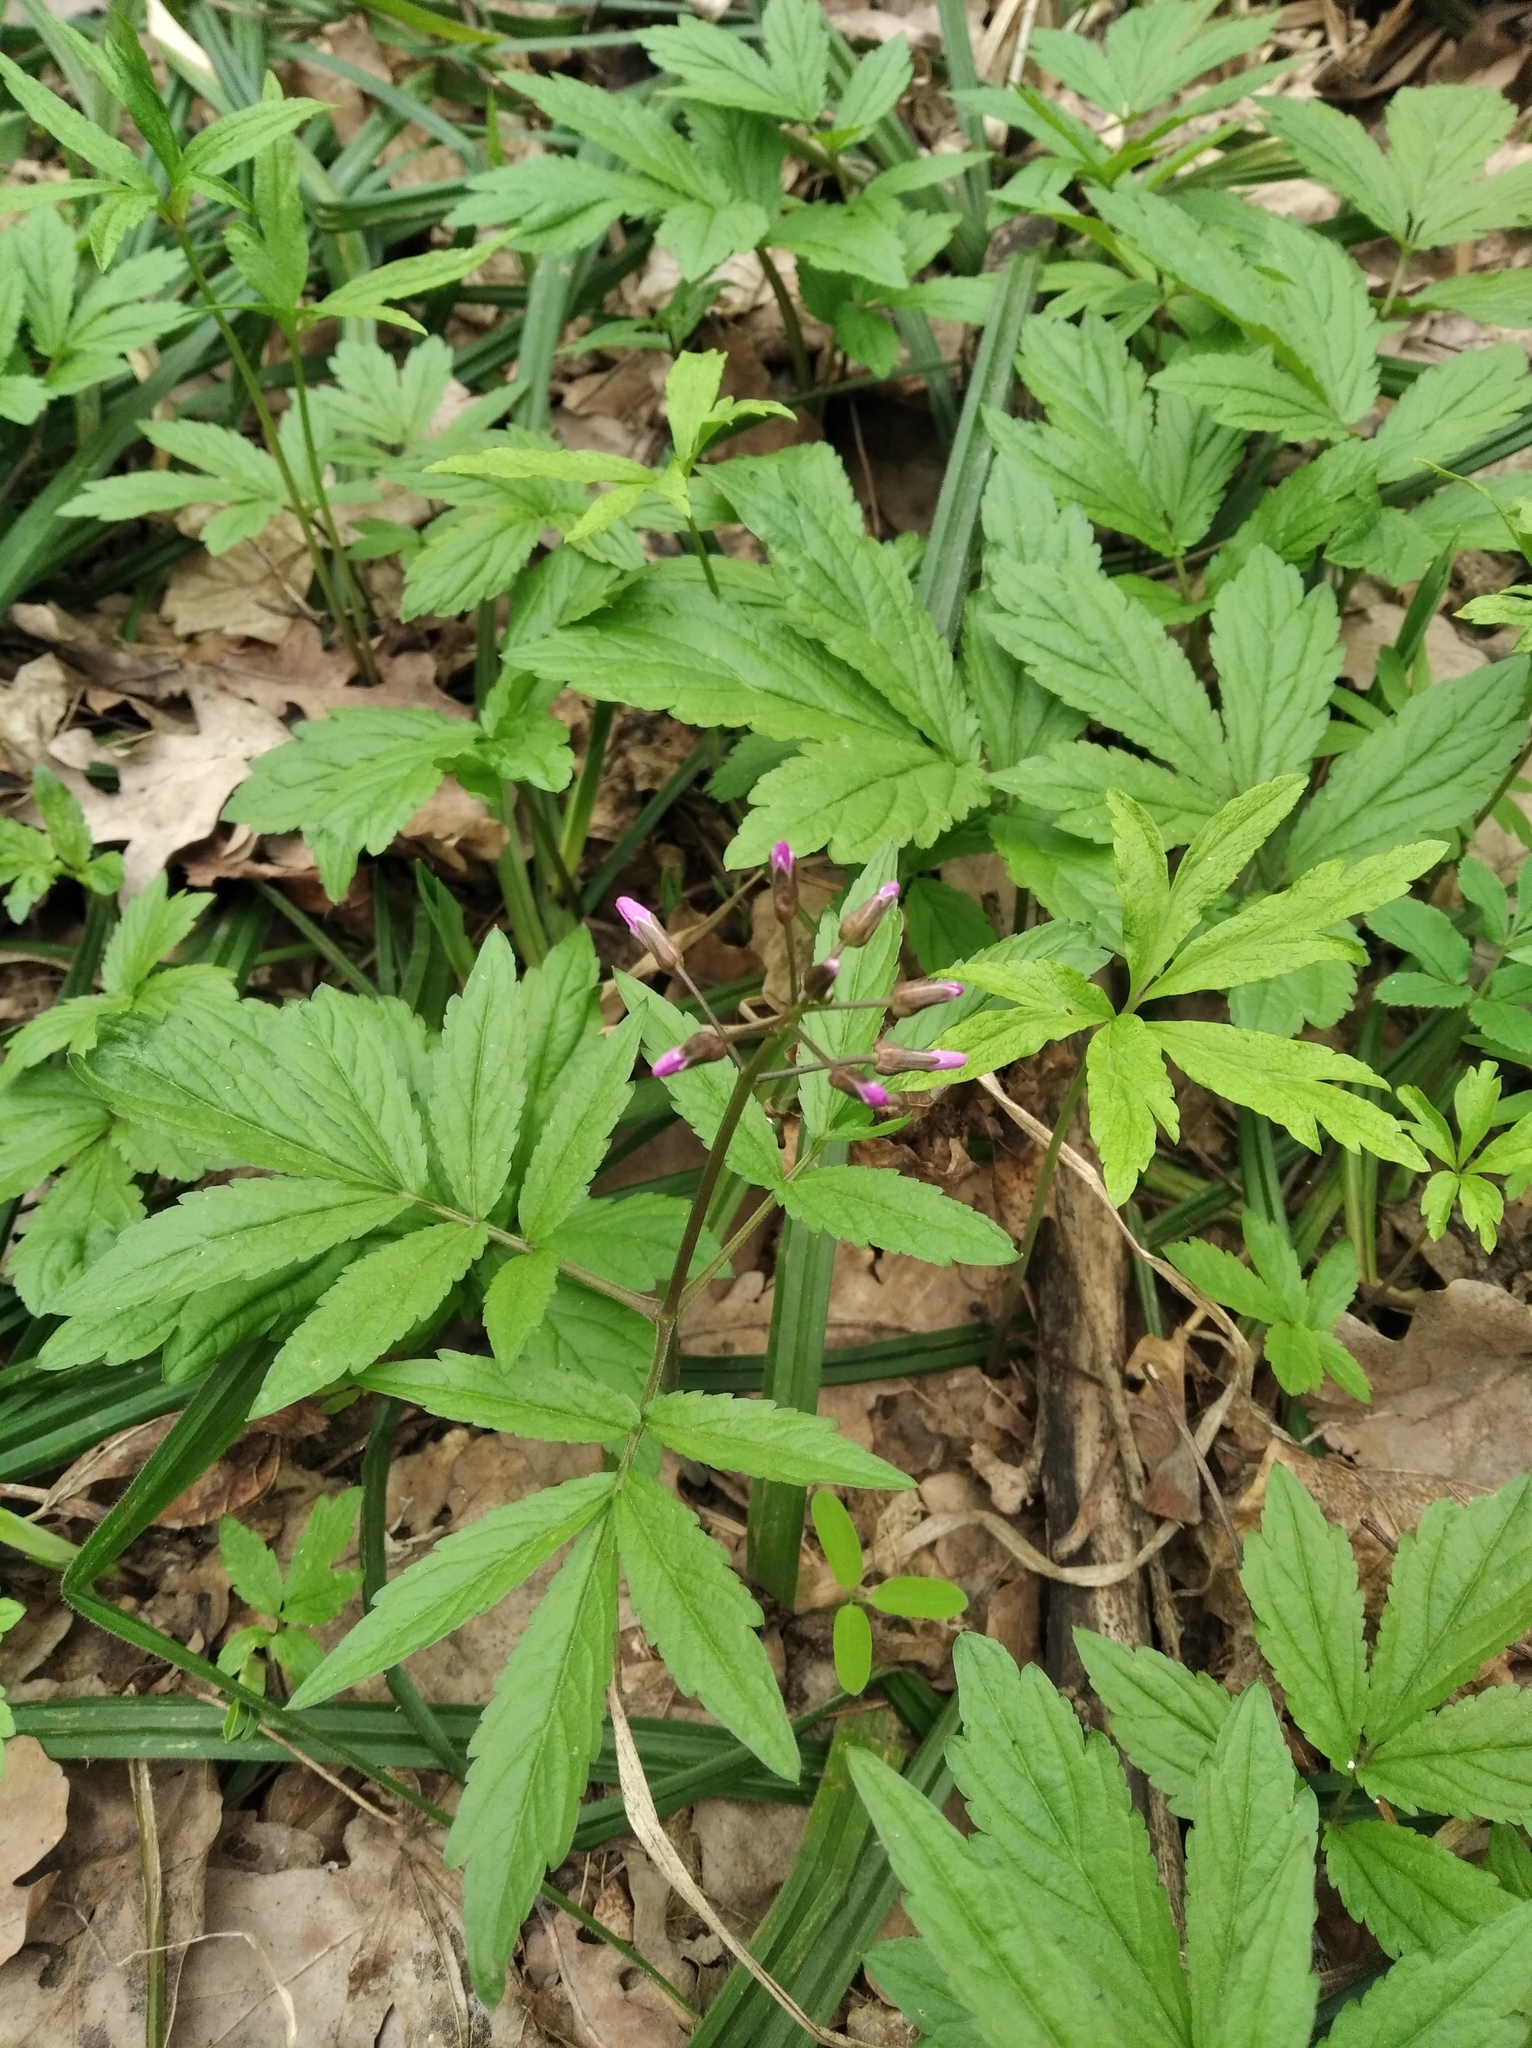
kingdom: Plantae
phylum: Tracheophyta
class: Magnoliopsida
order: Brassicales
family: Brassicaceae
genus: Cardamine
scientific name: Cardamine quinquefolia
